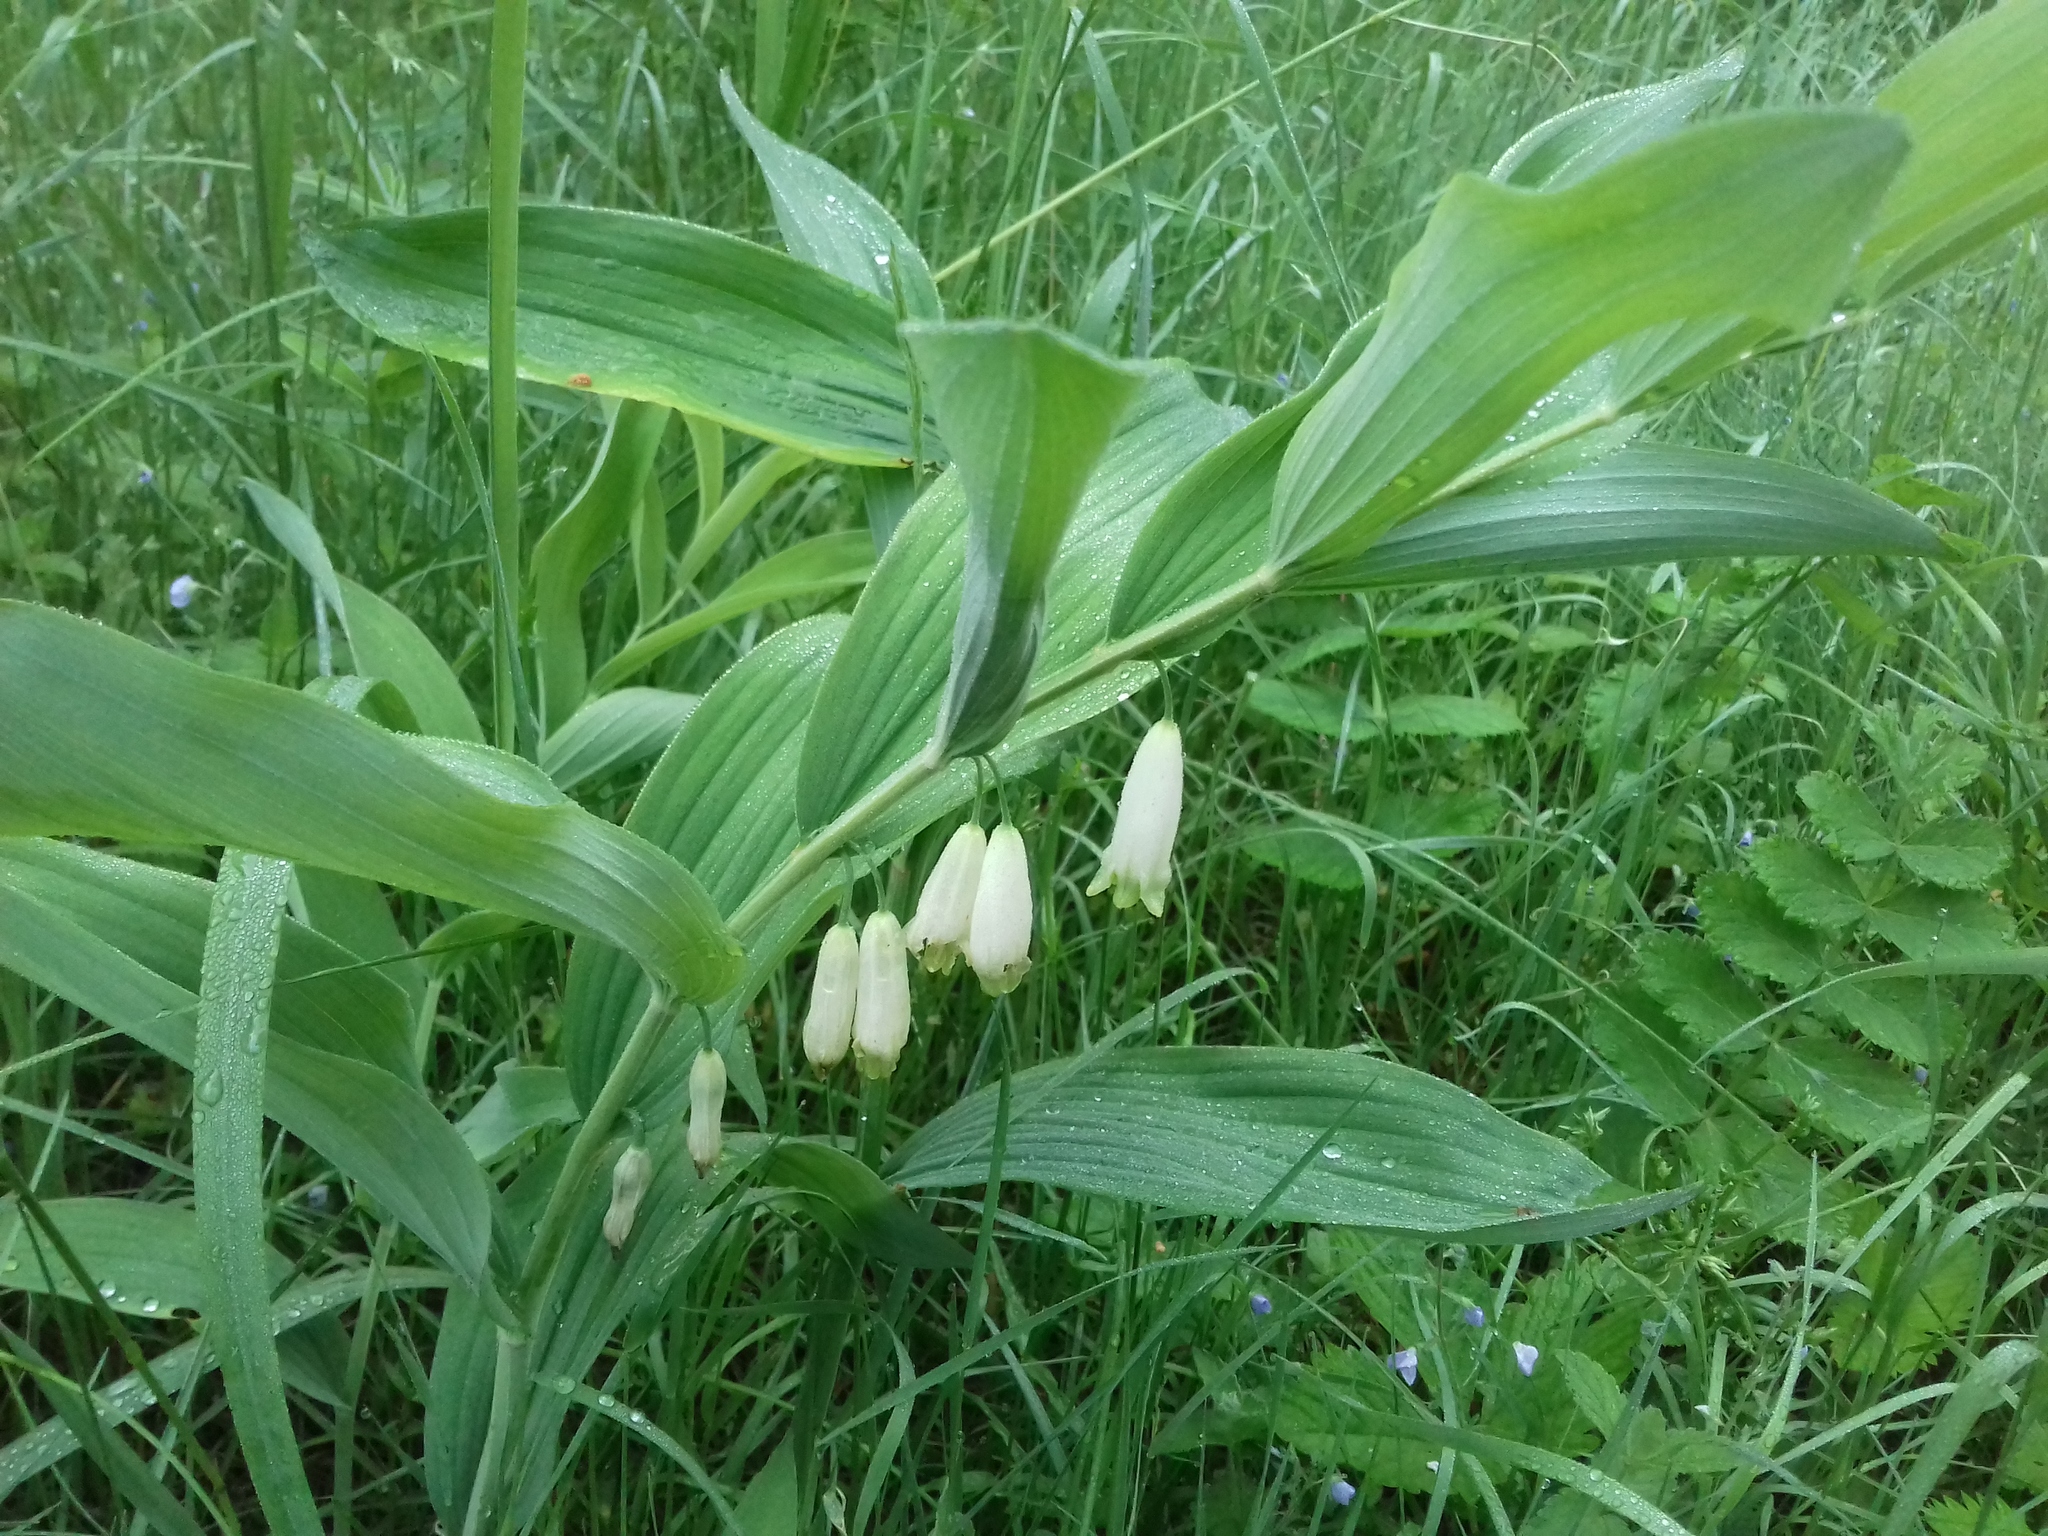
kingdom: Plantae
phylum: Tracheophyta
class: Liliopsida
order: Asparagales
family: Asparagaceae
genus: Polygonatum
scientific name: Polygonatum odoratum
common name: Angular solomon's-seal
